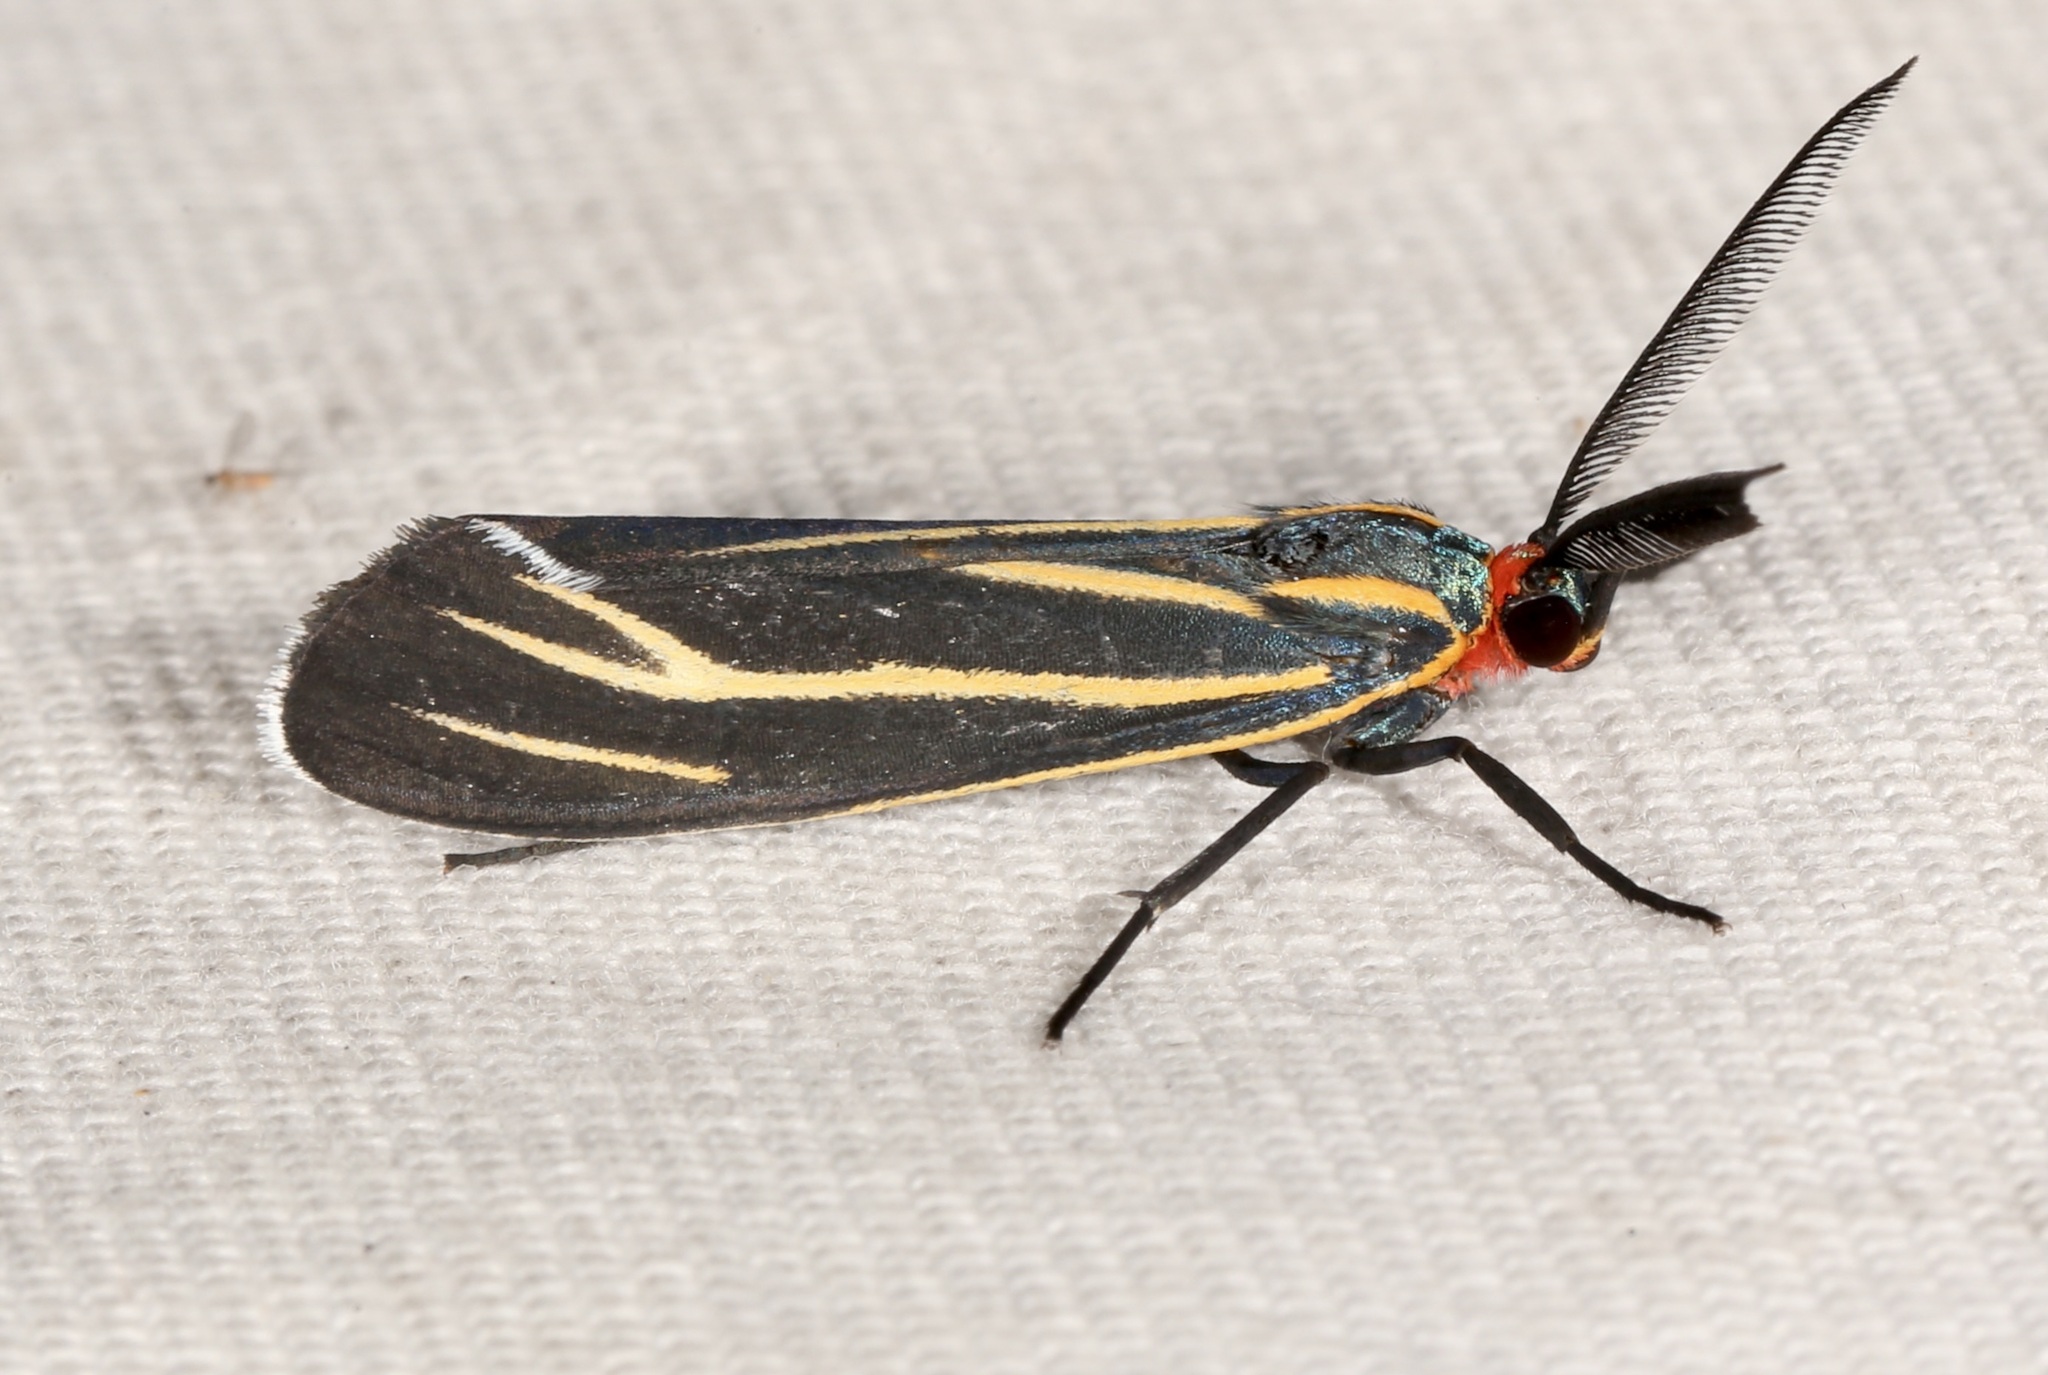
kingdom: Animalia
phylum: Arthropoda
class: Insecta
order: Lepidoptera
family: Erebidae
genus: Ctenucha
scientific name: Ctenucha venosa
